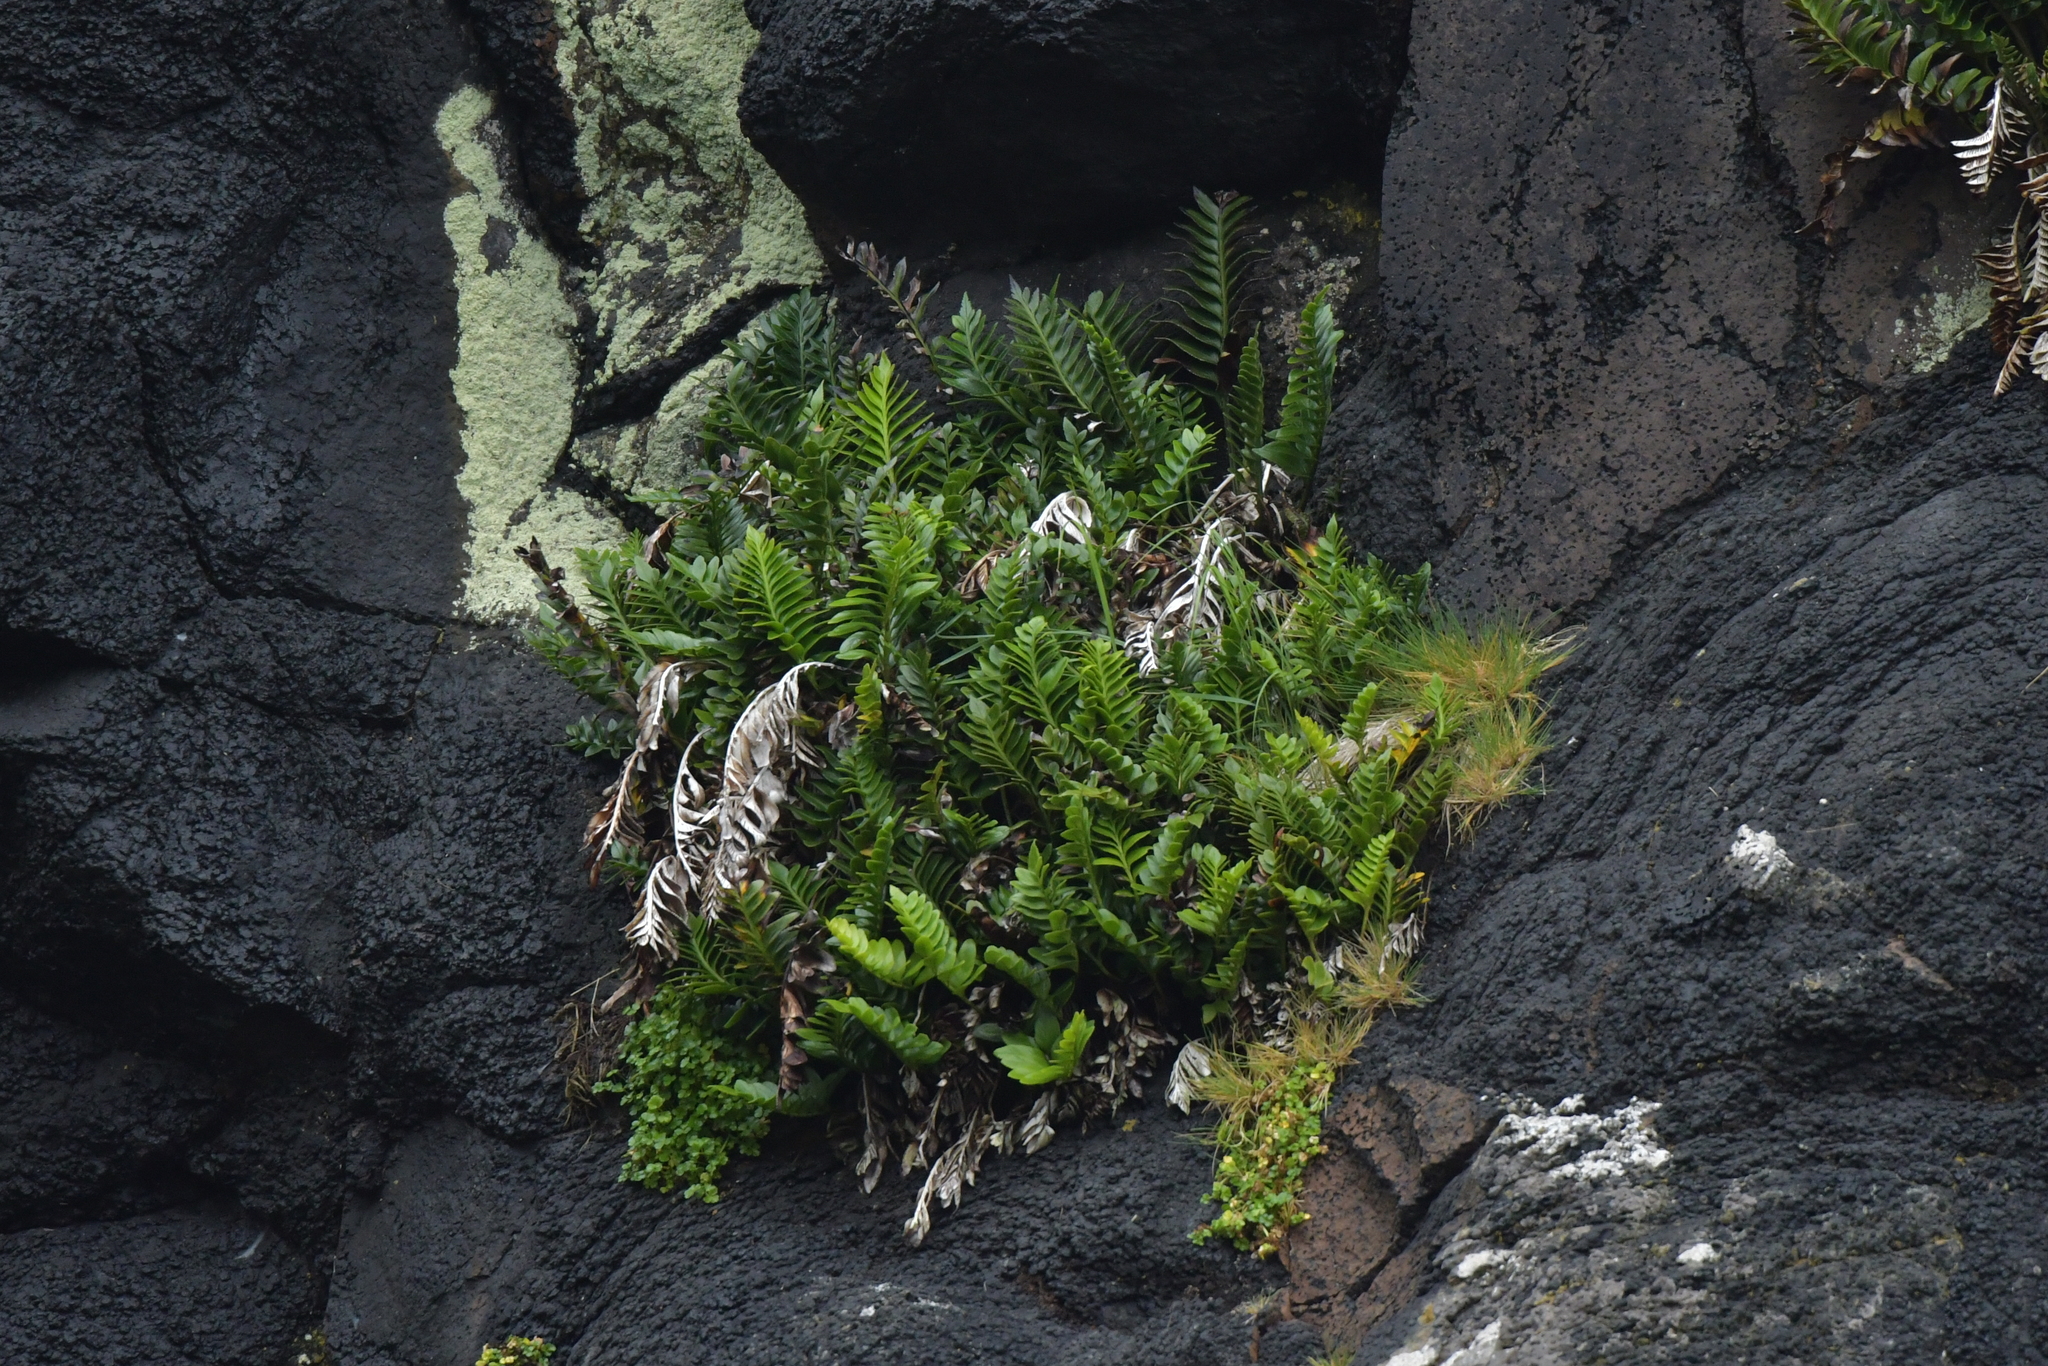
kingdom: Plantae
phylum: Tracheophyta
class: Polypodiopsida
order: Polypodiales
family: Aspleniaceae
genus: Asplenium
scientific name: Asplenium obtusatum
